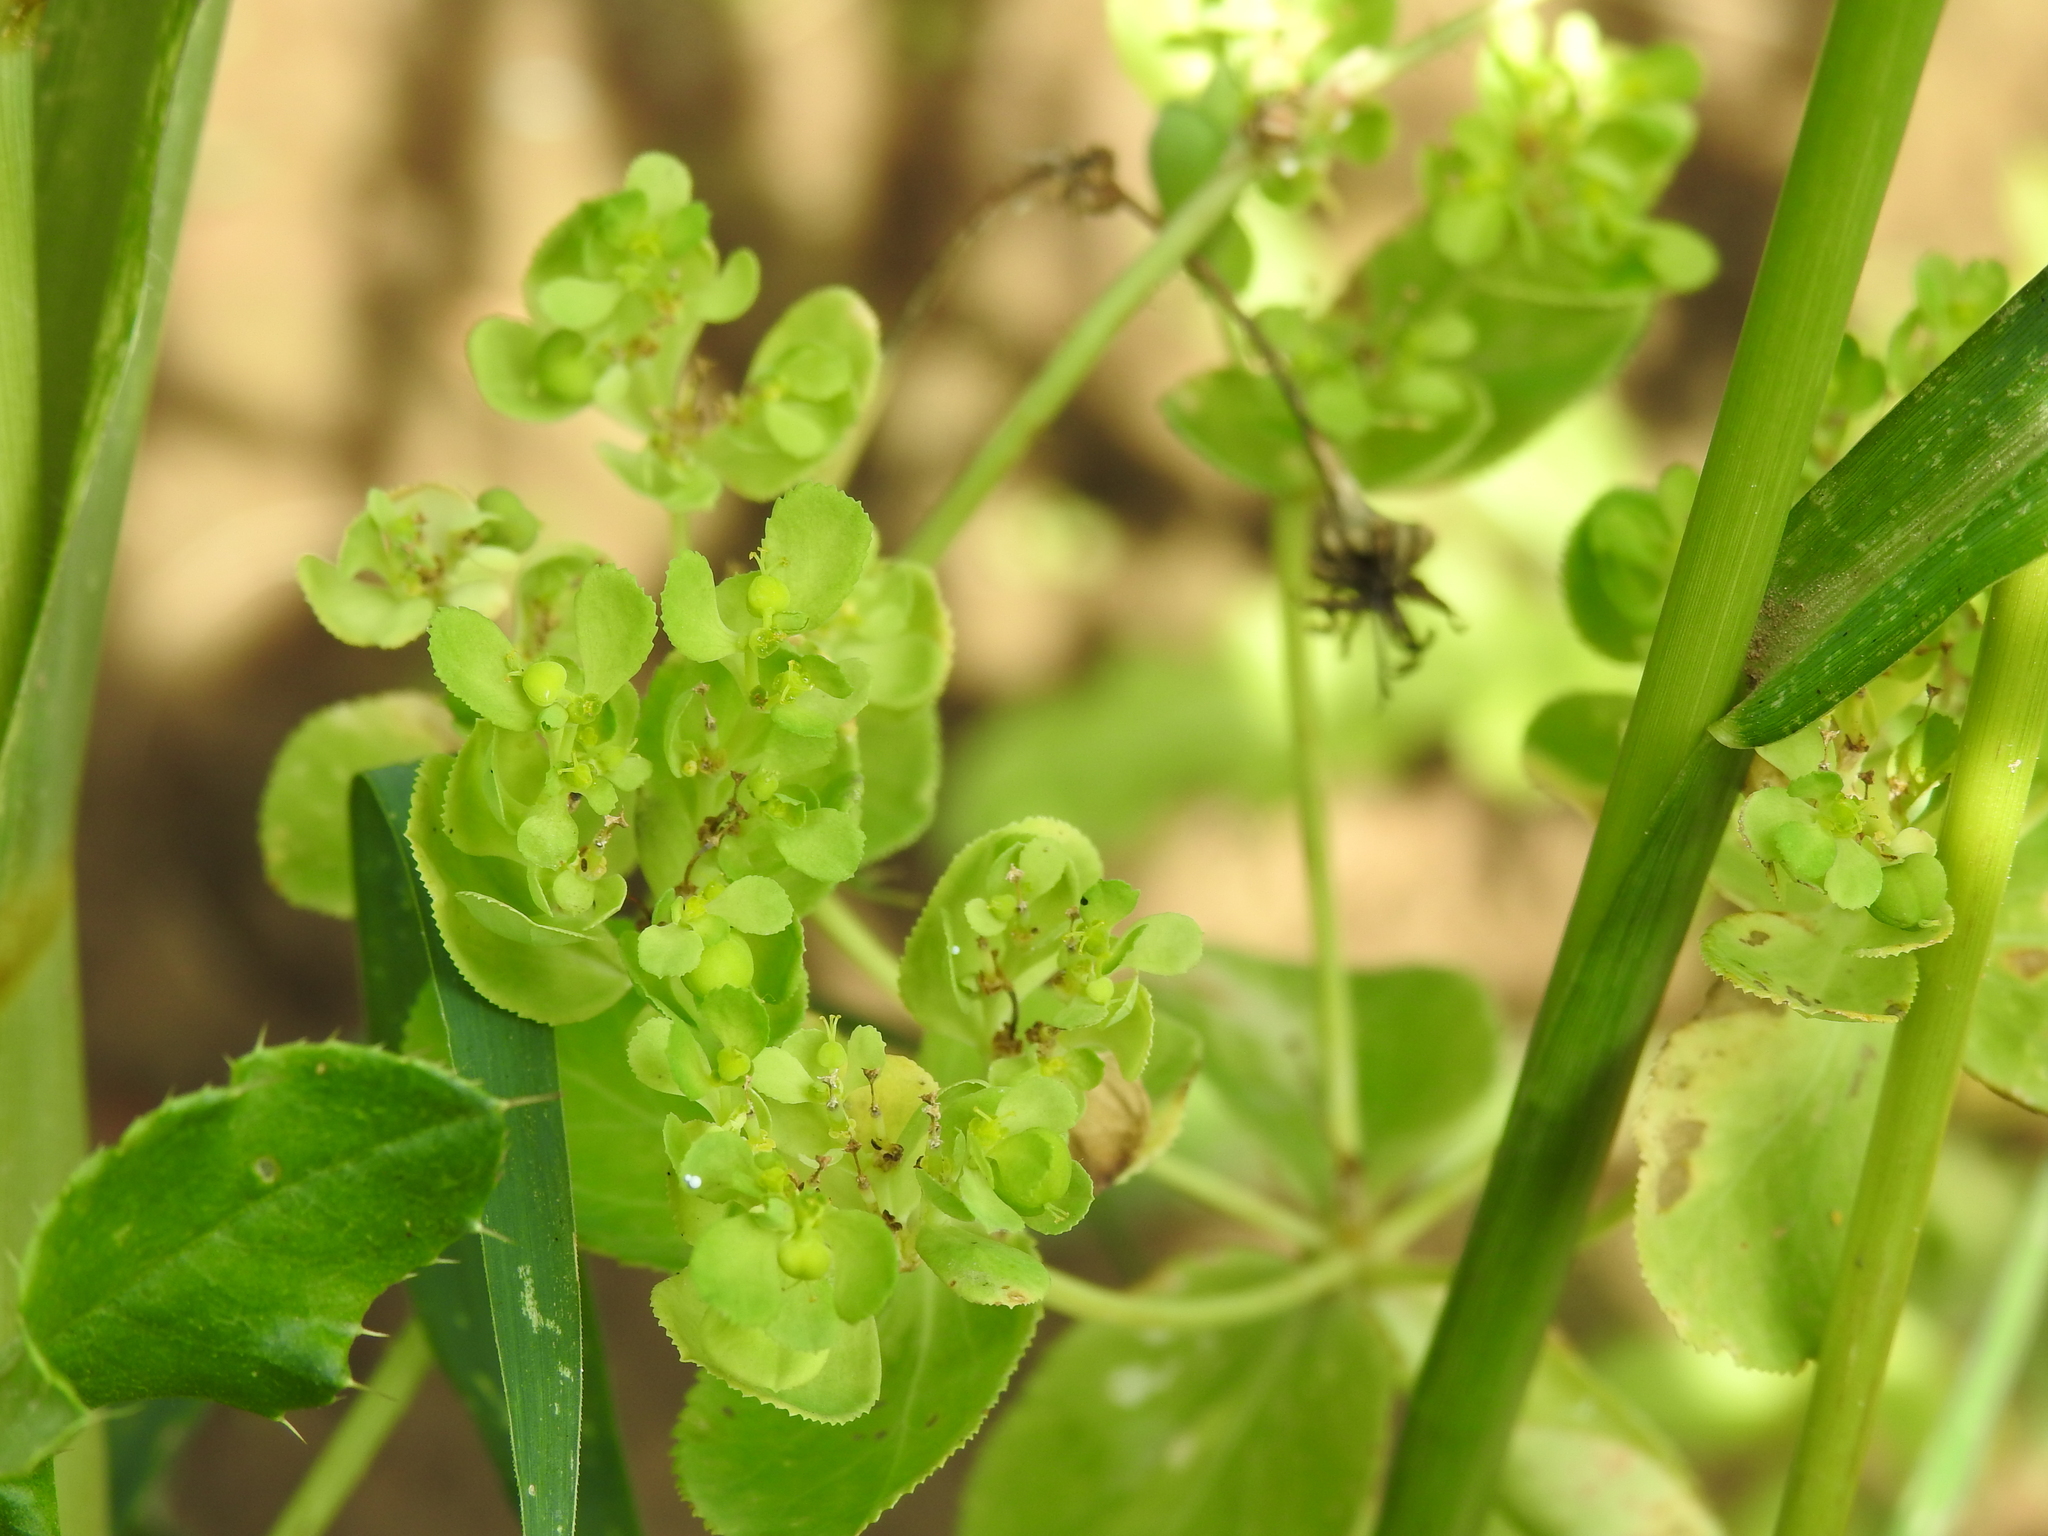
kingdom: Plantae
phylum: Tracheophyta
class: Magnoliopsida
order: Malpighiales
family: Euphorbiaceae
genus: Euphorbia
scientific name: Euphorbia helioscopia
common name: Sun spurge
